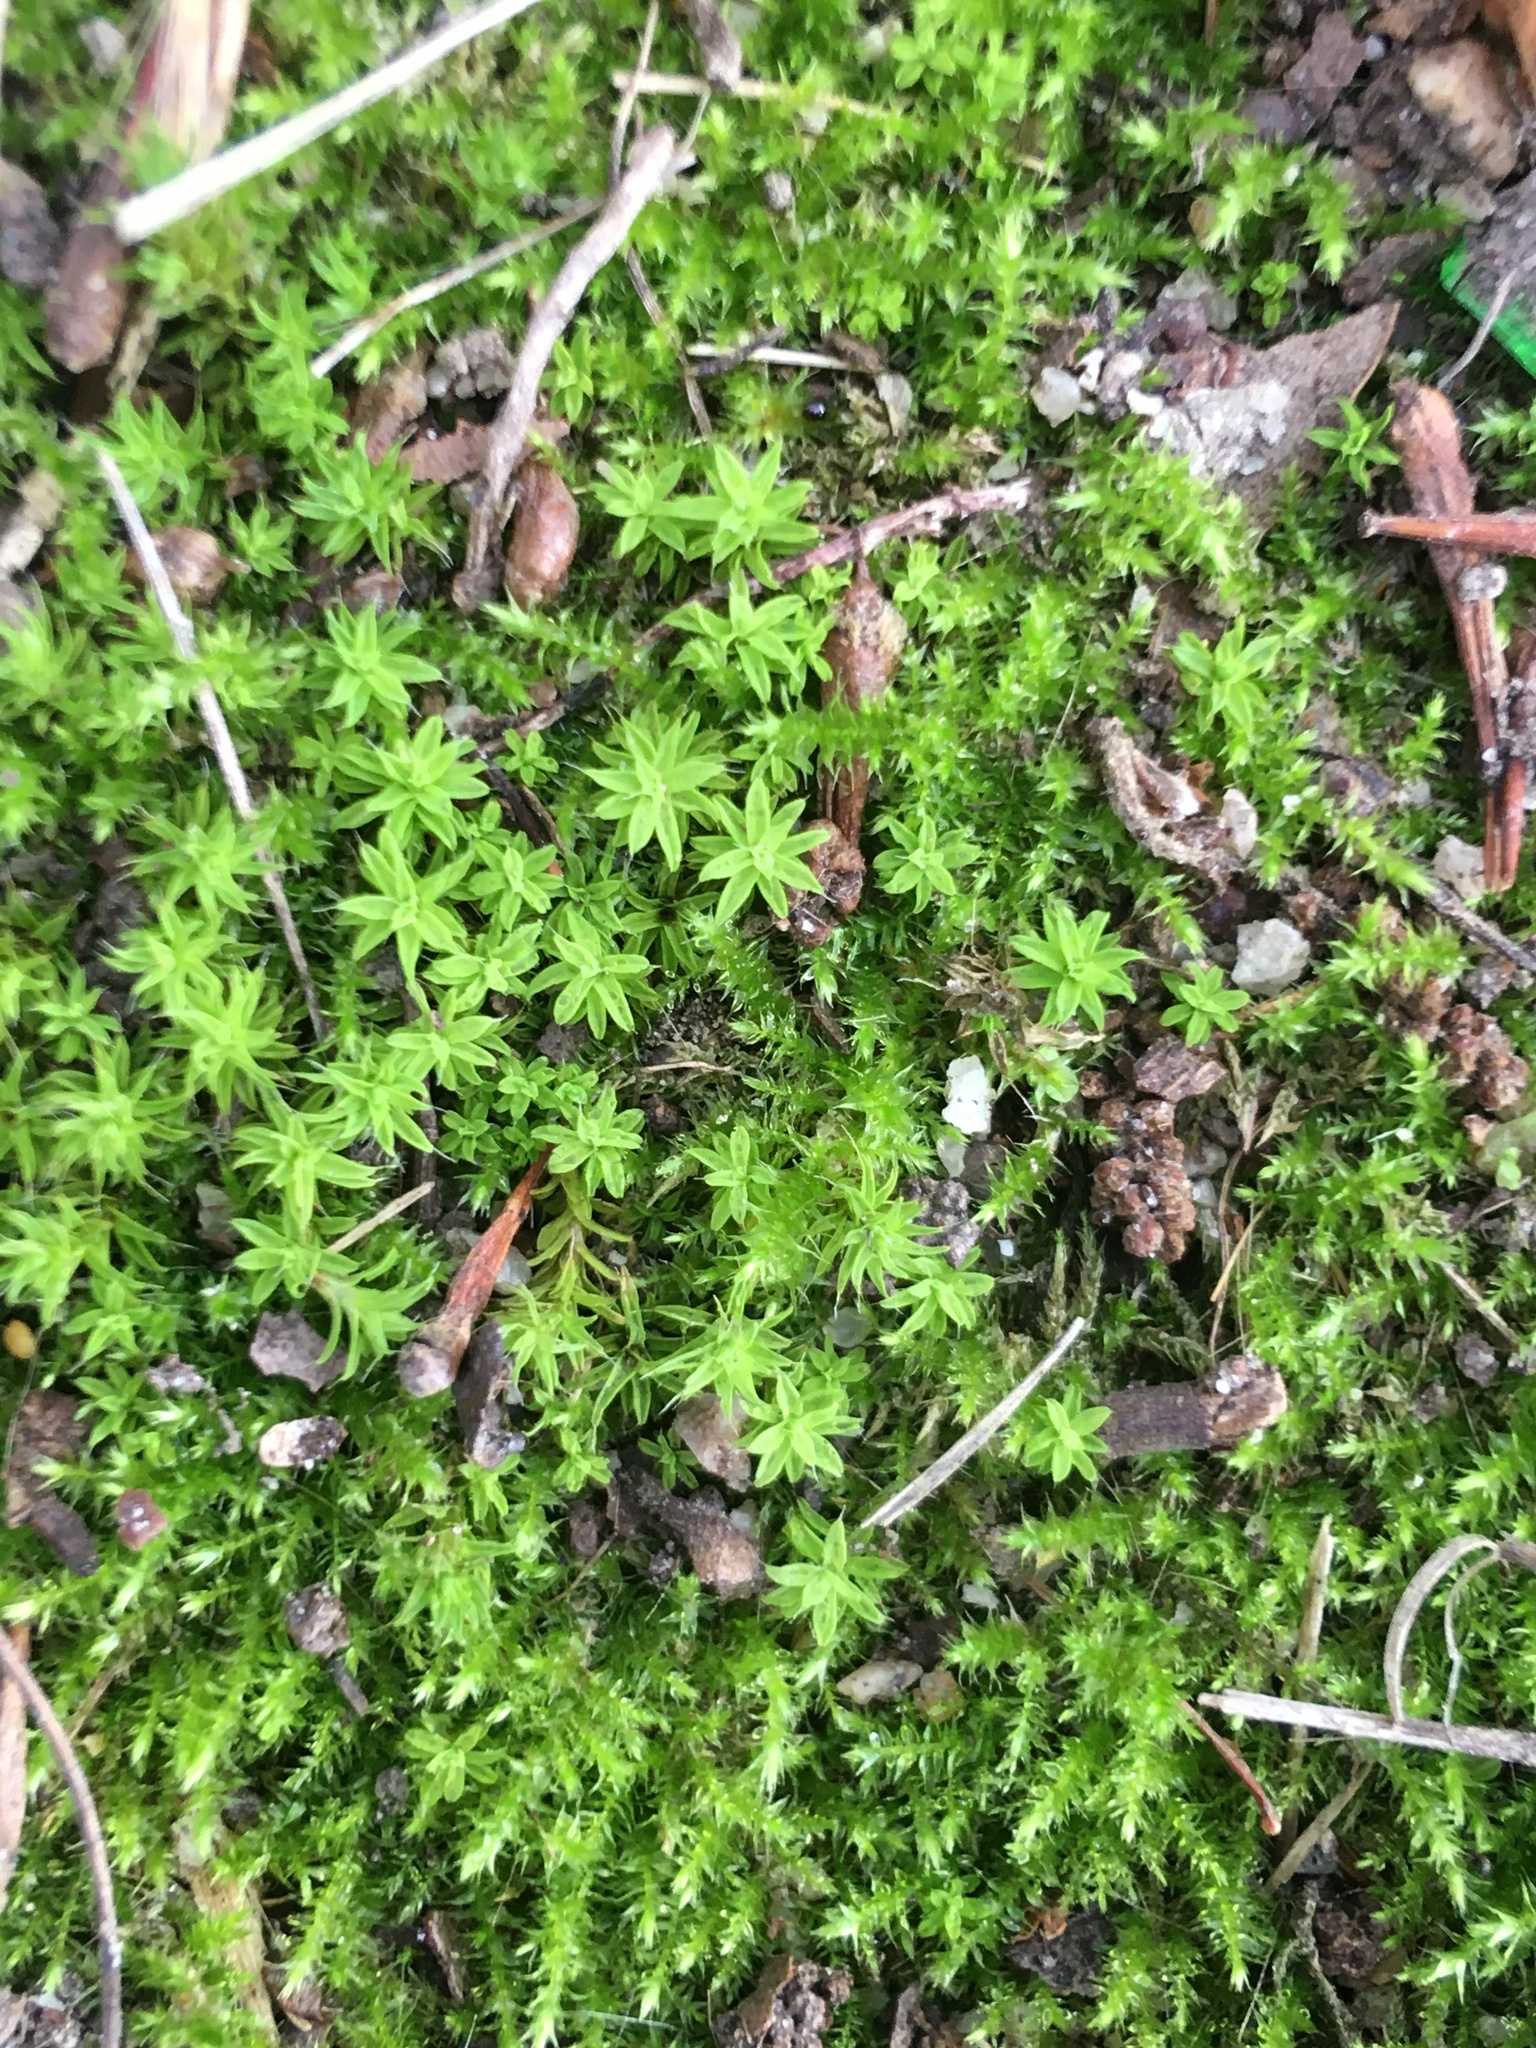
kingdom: Plantae
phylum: Bryophyta
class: Bryopsida
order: Pottiales
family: Pottiaceae
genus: Pseudocrossidium
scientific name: Pseudocrossidium crinitum
